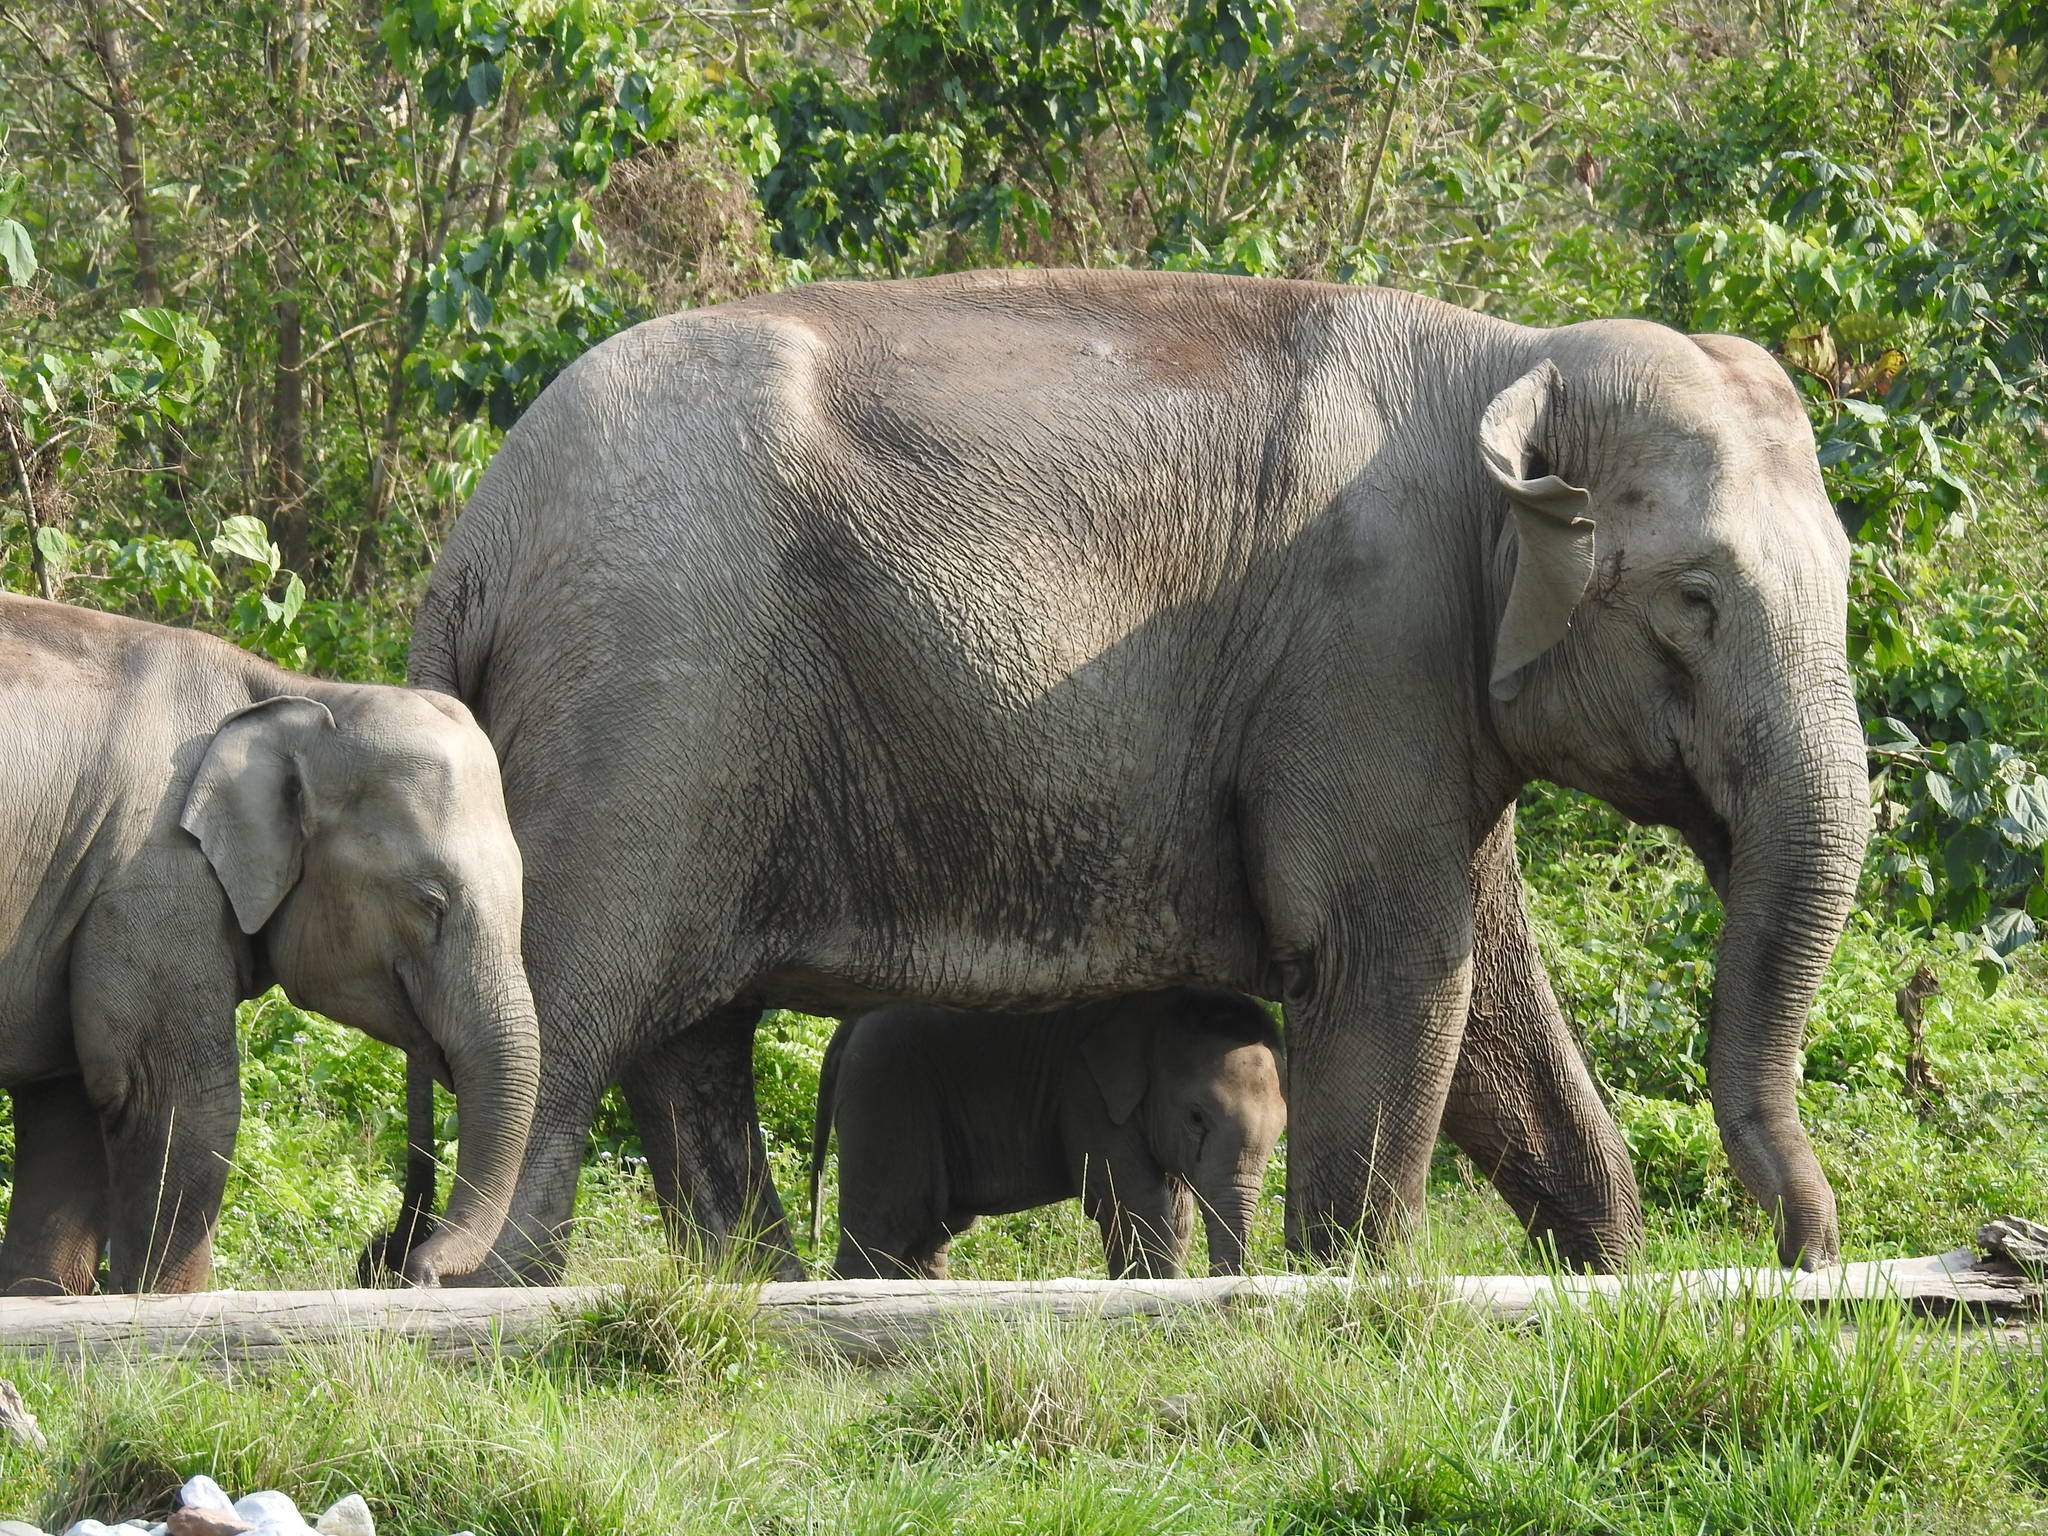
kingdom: Animalia
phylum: Chordata
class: Mammalia
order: Proboscidea
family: Elephantidae
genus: Elephas
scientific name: Elephas maximus
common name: Asian elephant
